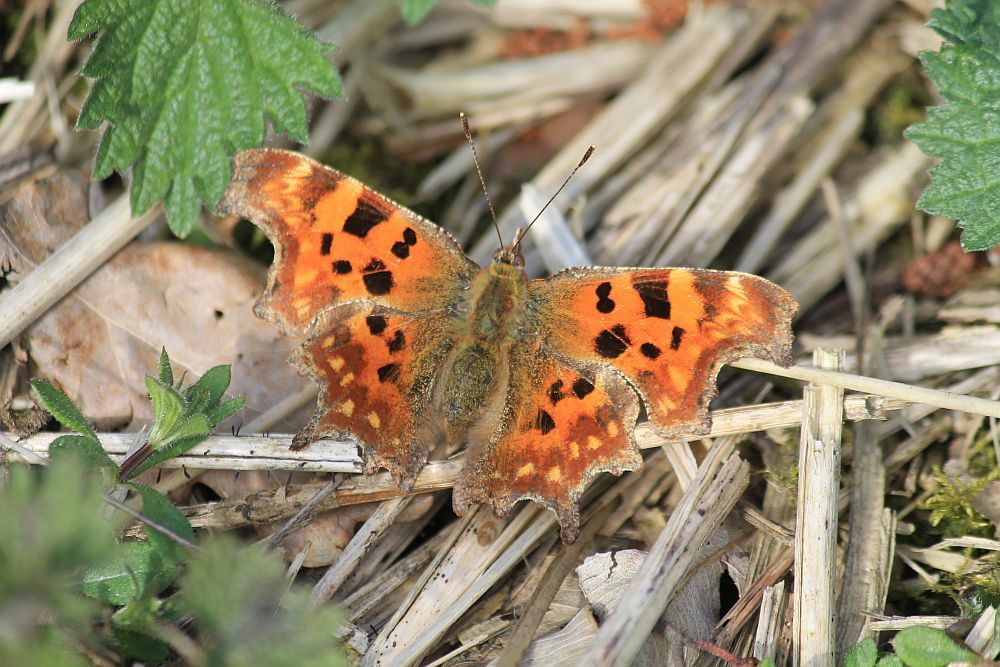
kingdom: Animalia
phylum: Arthropoda
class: Insecta
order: Lepidoptera
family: Nymphalidae
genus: Polygonia
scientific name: Polygonia c-album
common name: Comma
